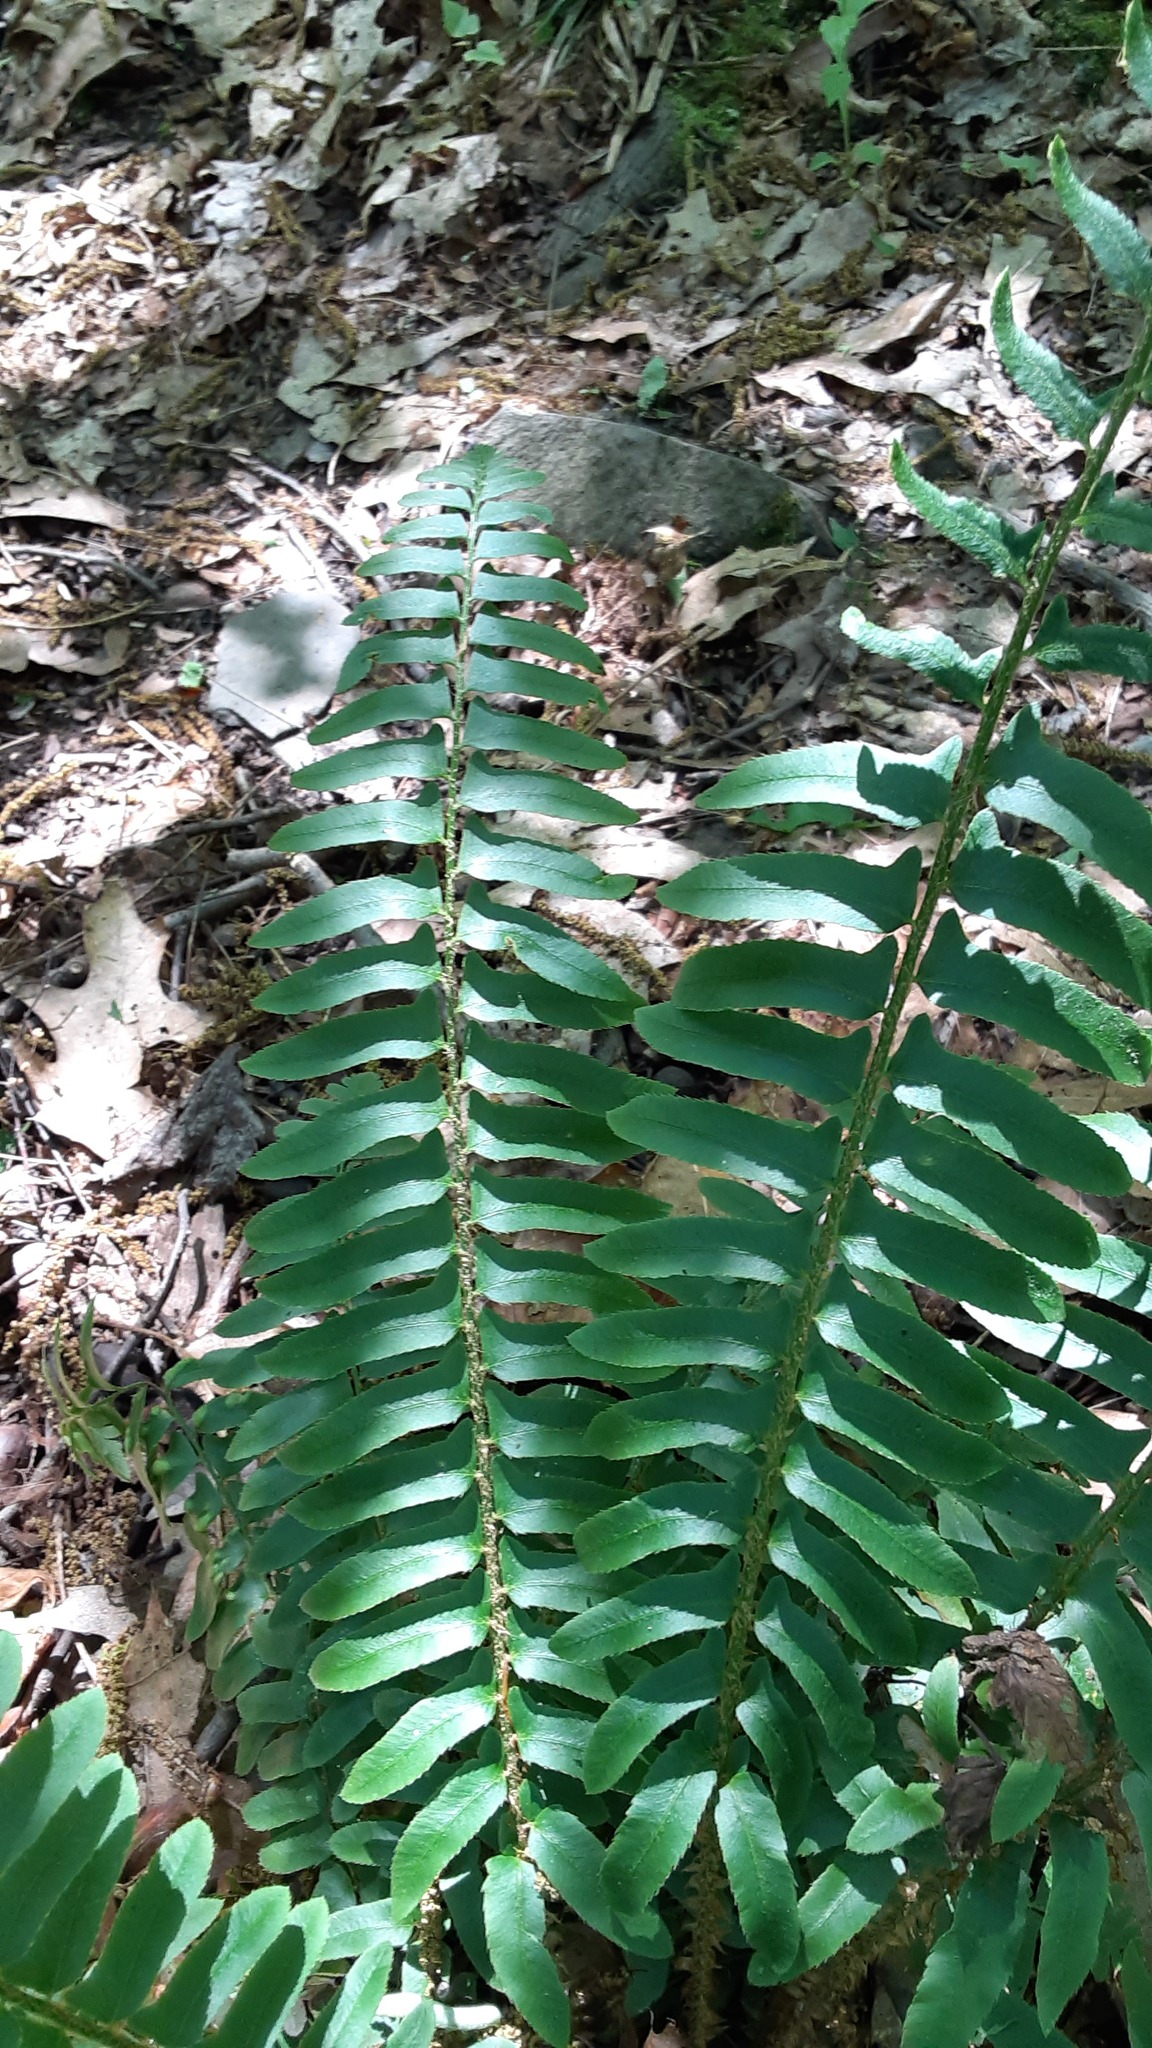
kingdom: Plantae
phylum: Tracheophyta
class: Polypodiopsida
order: Polypodiales
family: Dryopteridaceae
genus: Polystichum
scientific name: Polystichum acrostichoides
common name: Christmas fern
